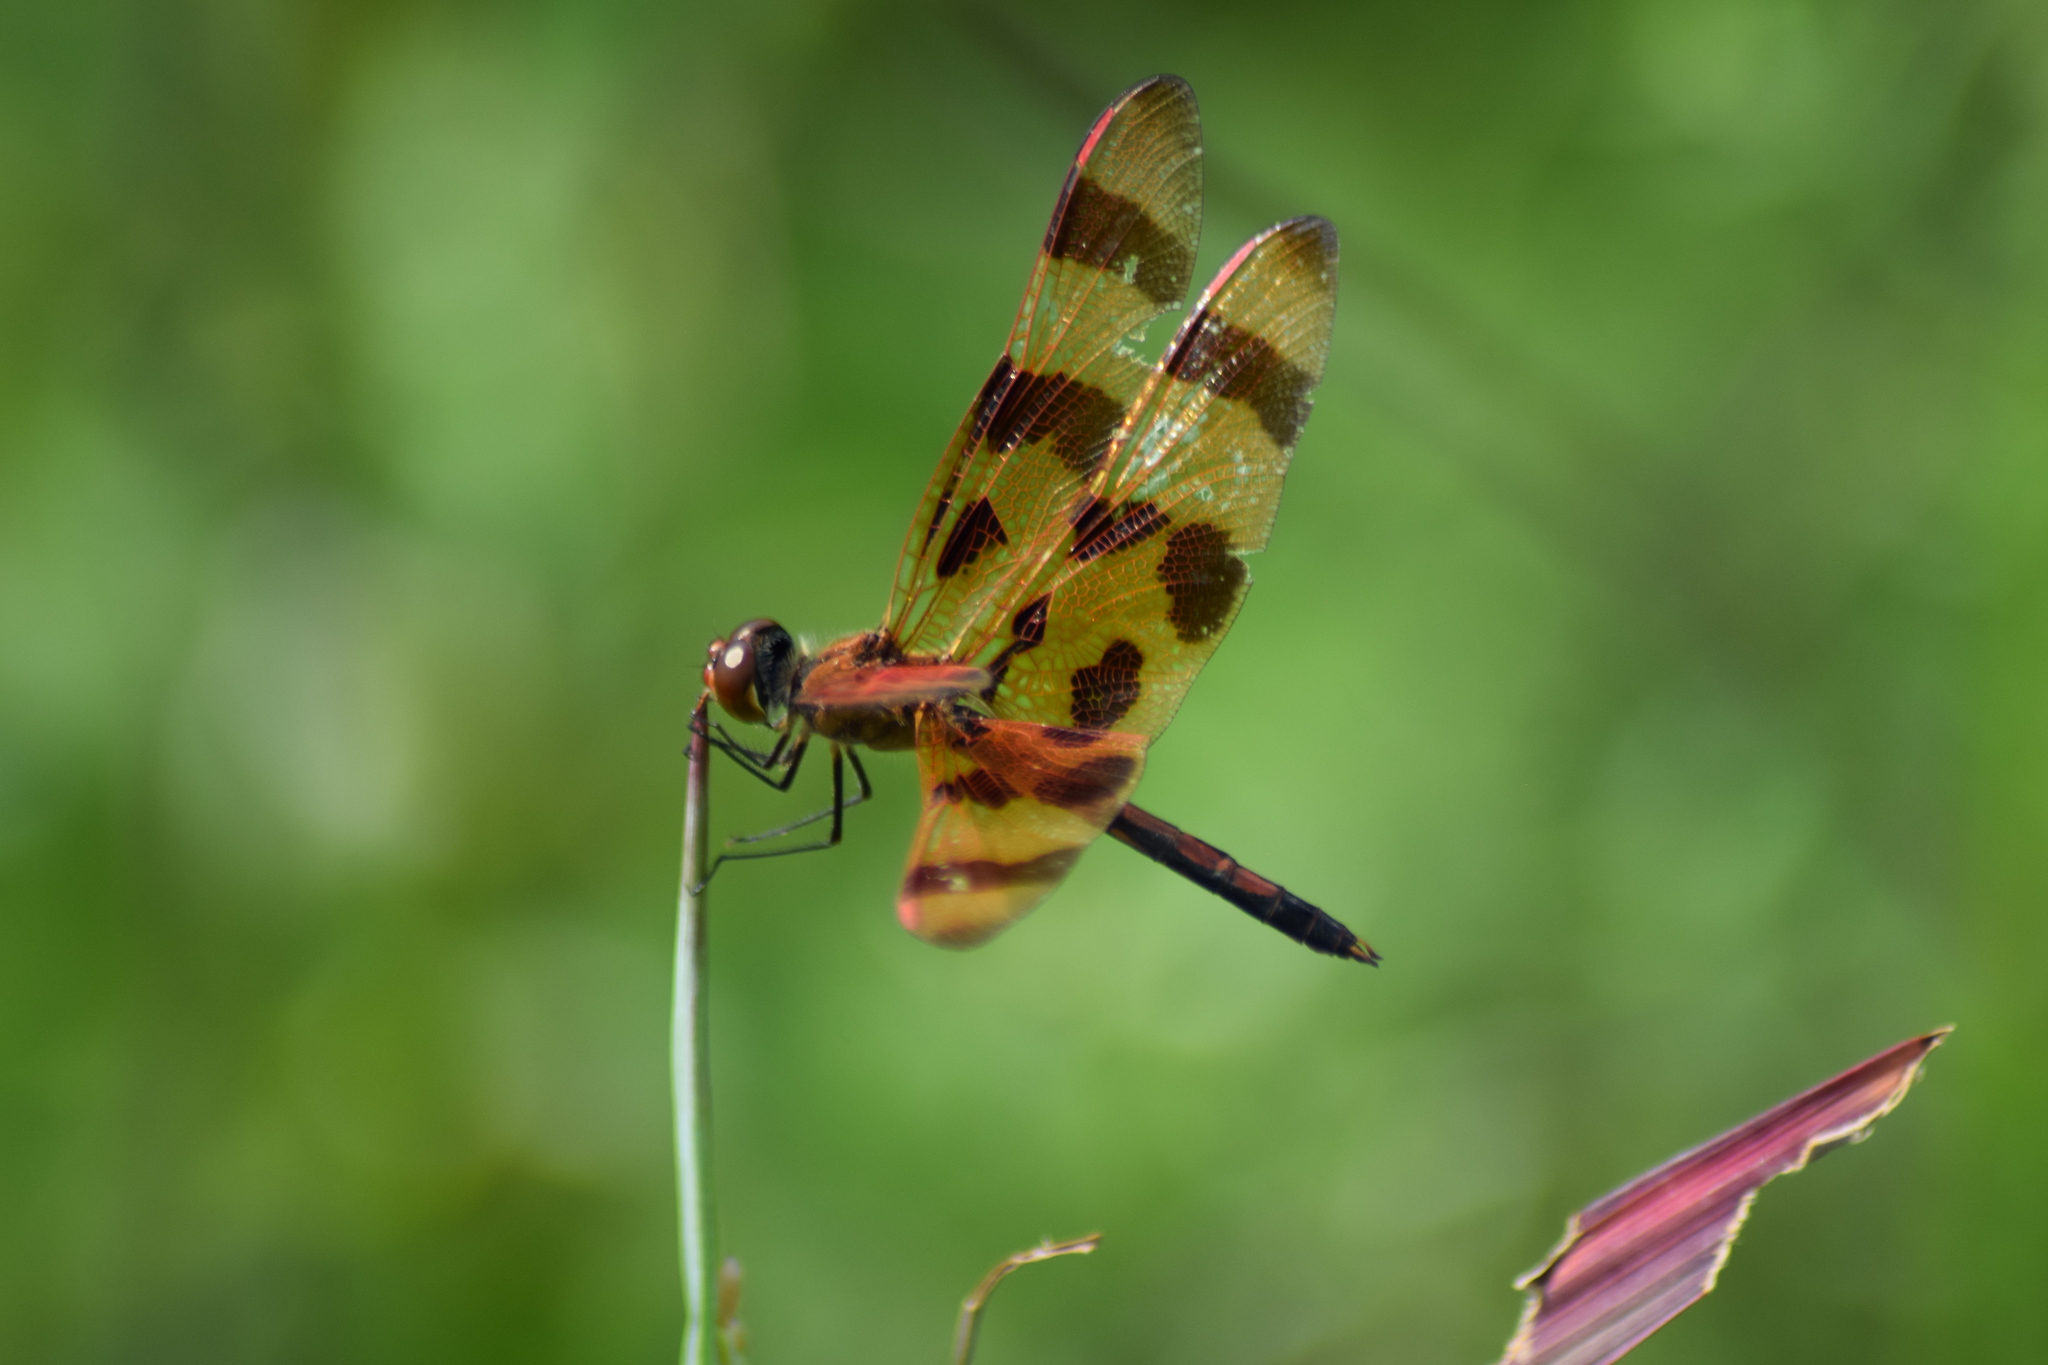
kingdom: Animalia
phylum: Arthropoda
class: Insecta
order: Odonata
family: Libellulidae
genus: Celithemis
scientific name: Celithemis eponina
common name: Halloween pennant
